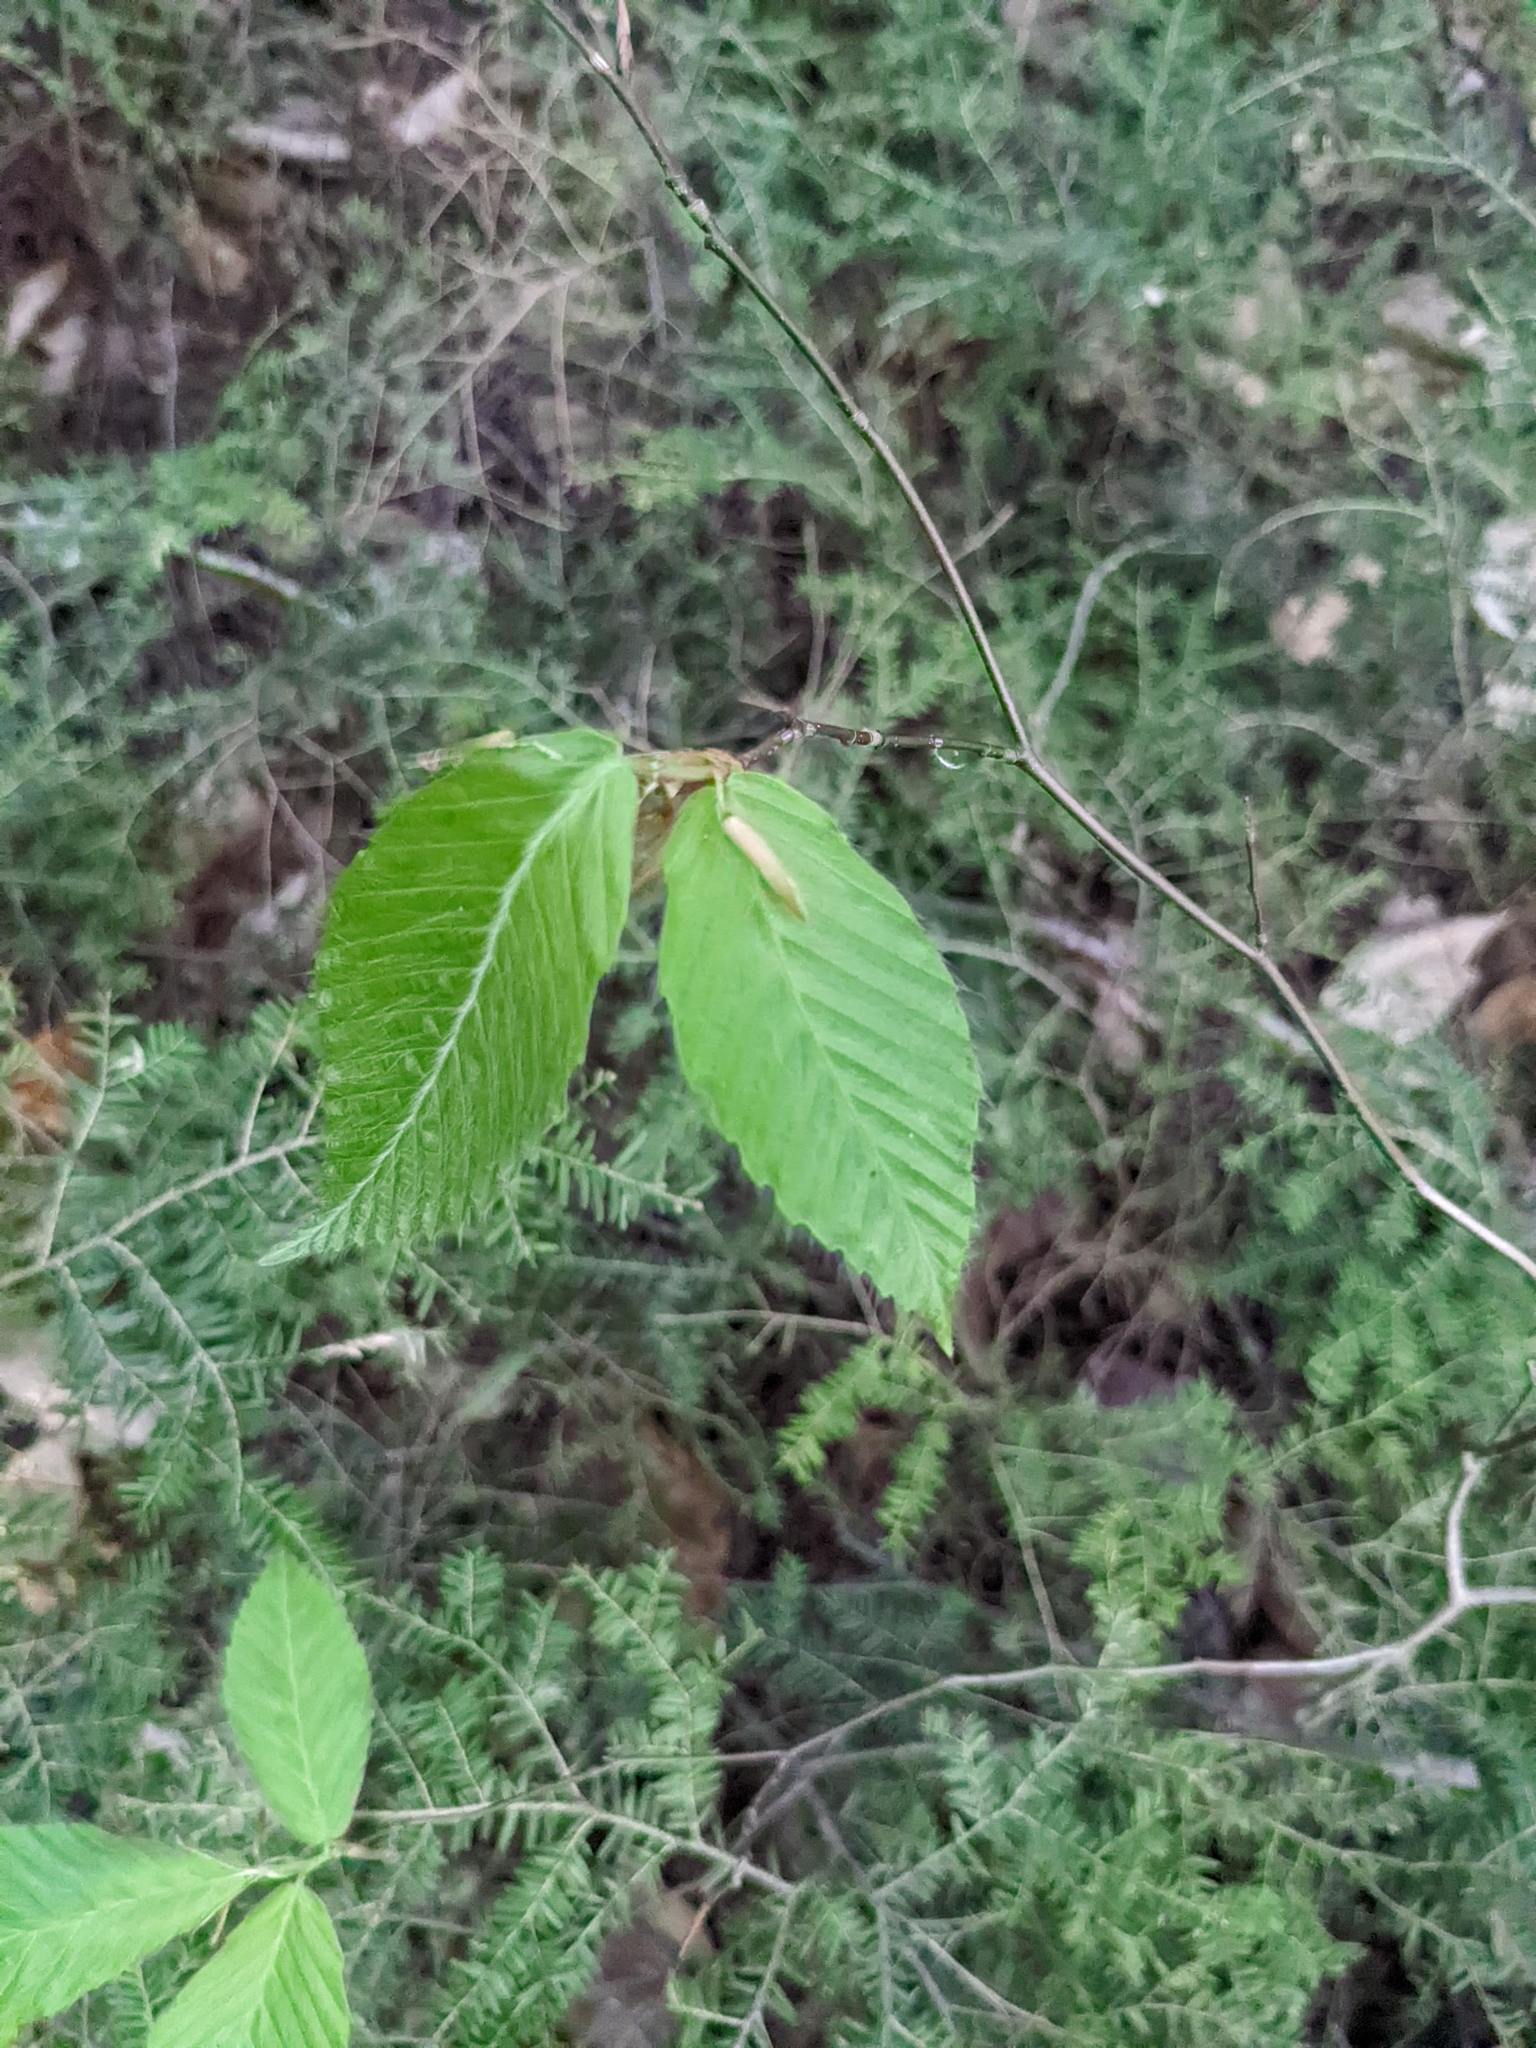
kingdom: Plantae
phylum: Tracheophyta
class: Magnoliopsida
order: Fagales
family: Fagaceae
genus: Fagus
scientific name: Fagus grandifolia
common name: American beech
